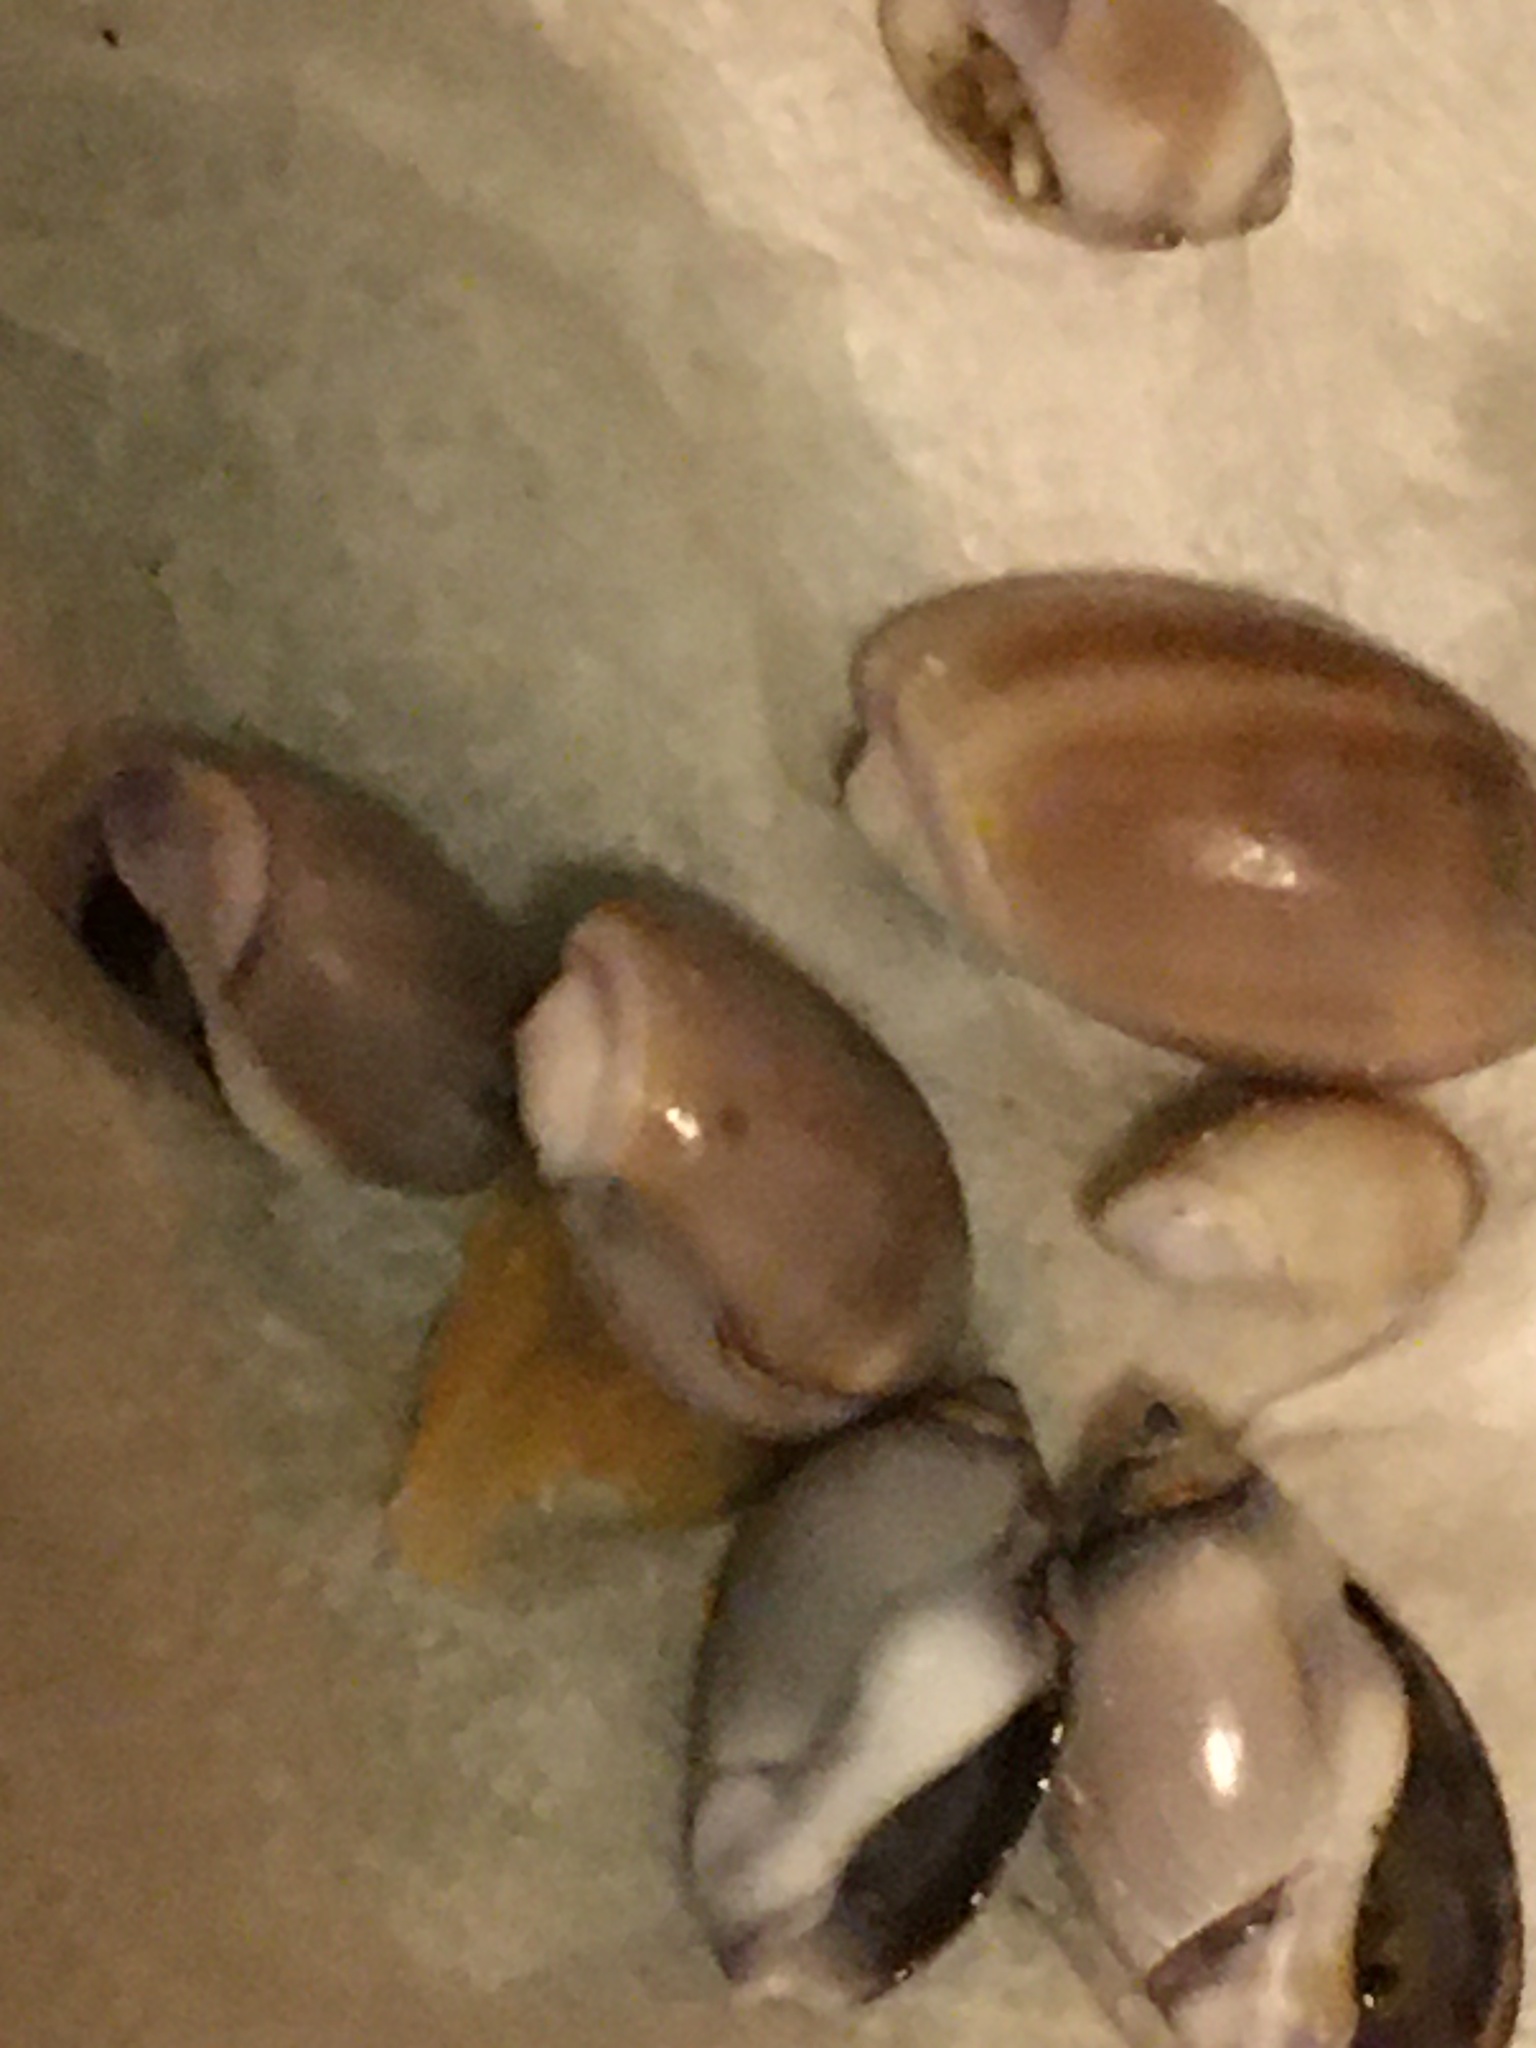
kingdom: Animalia
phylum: Mollusca
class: Gastropoda
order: Neogastropoda
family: Olividae
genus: Callianax
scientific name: Callianax biplicata
